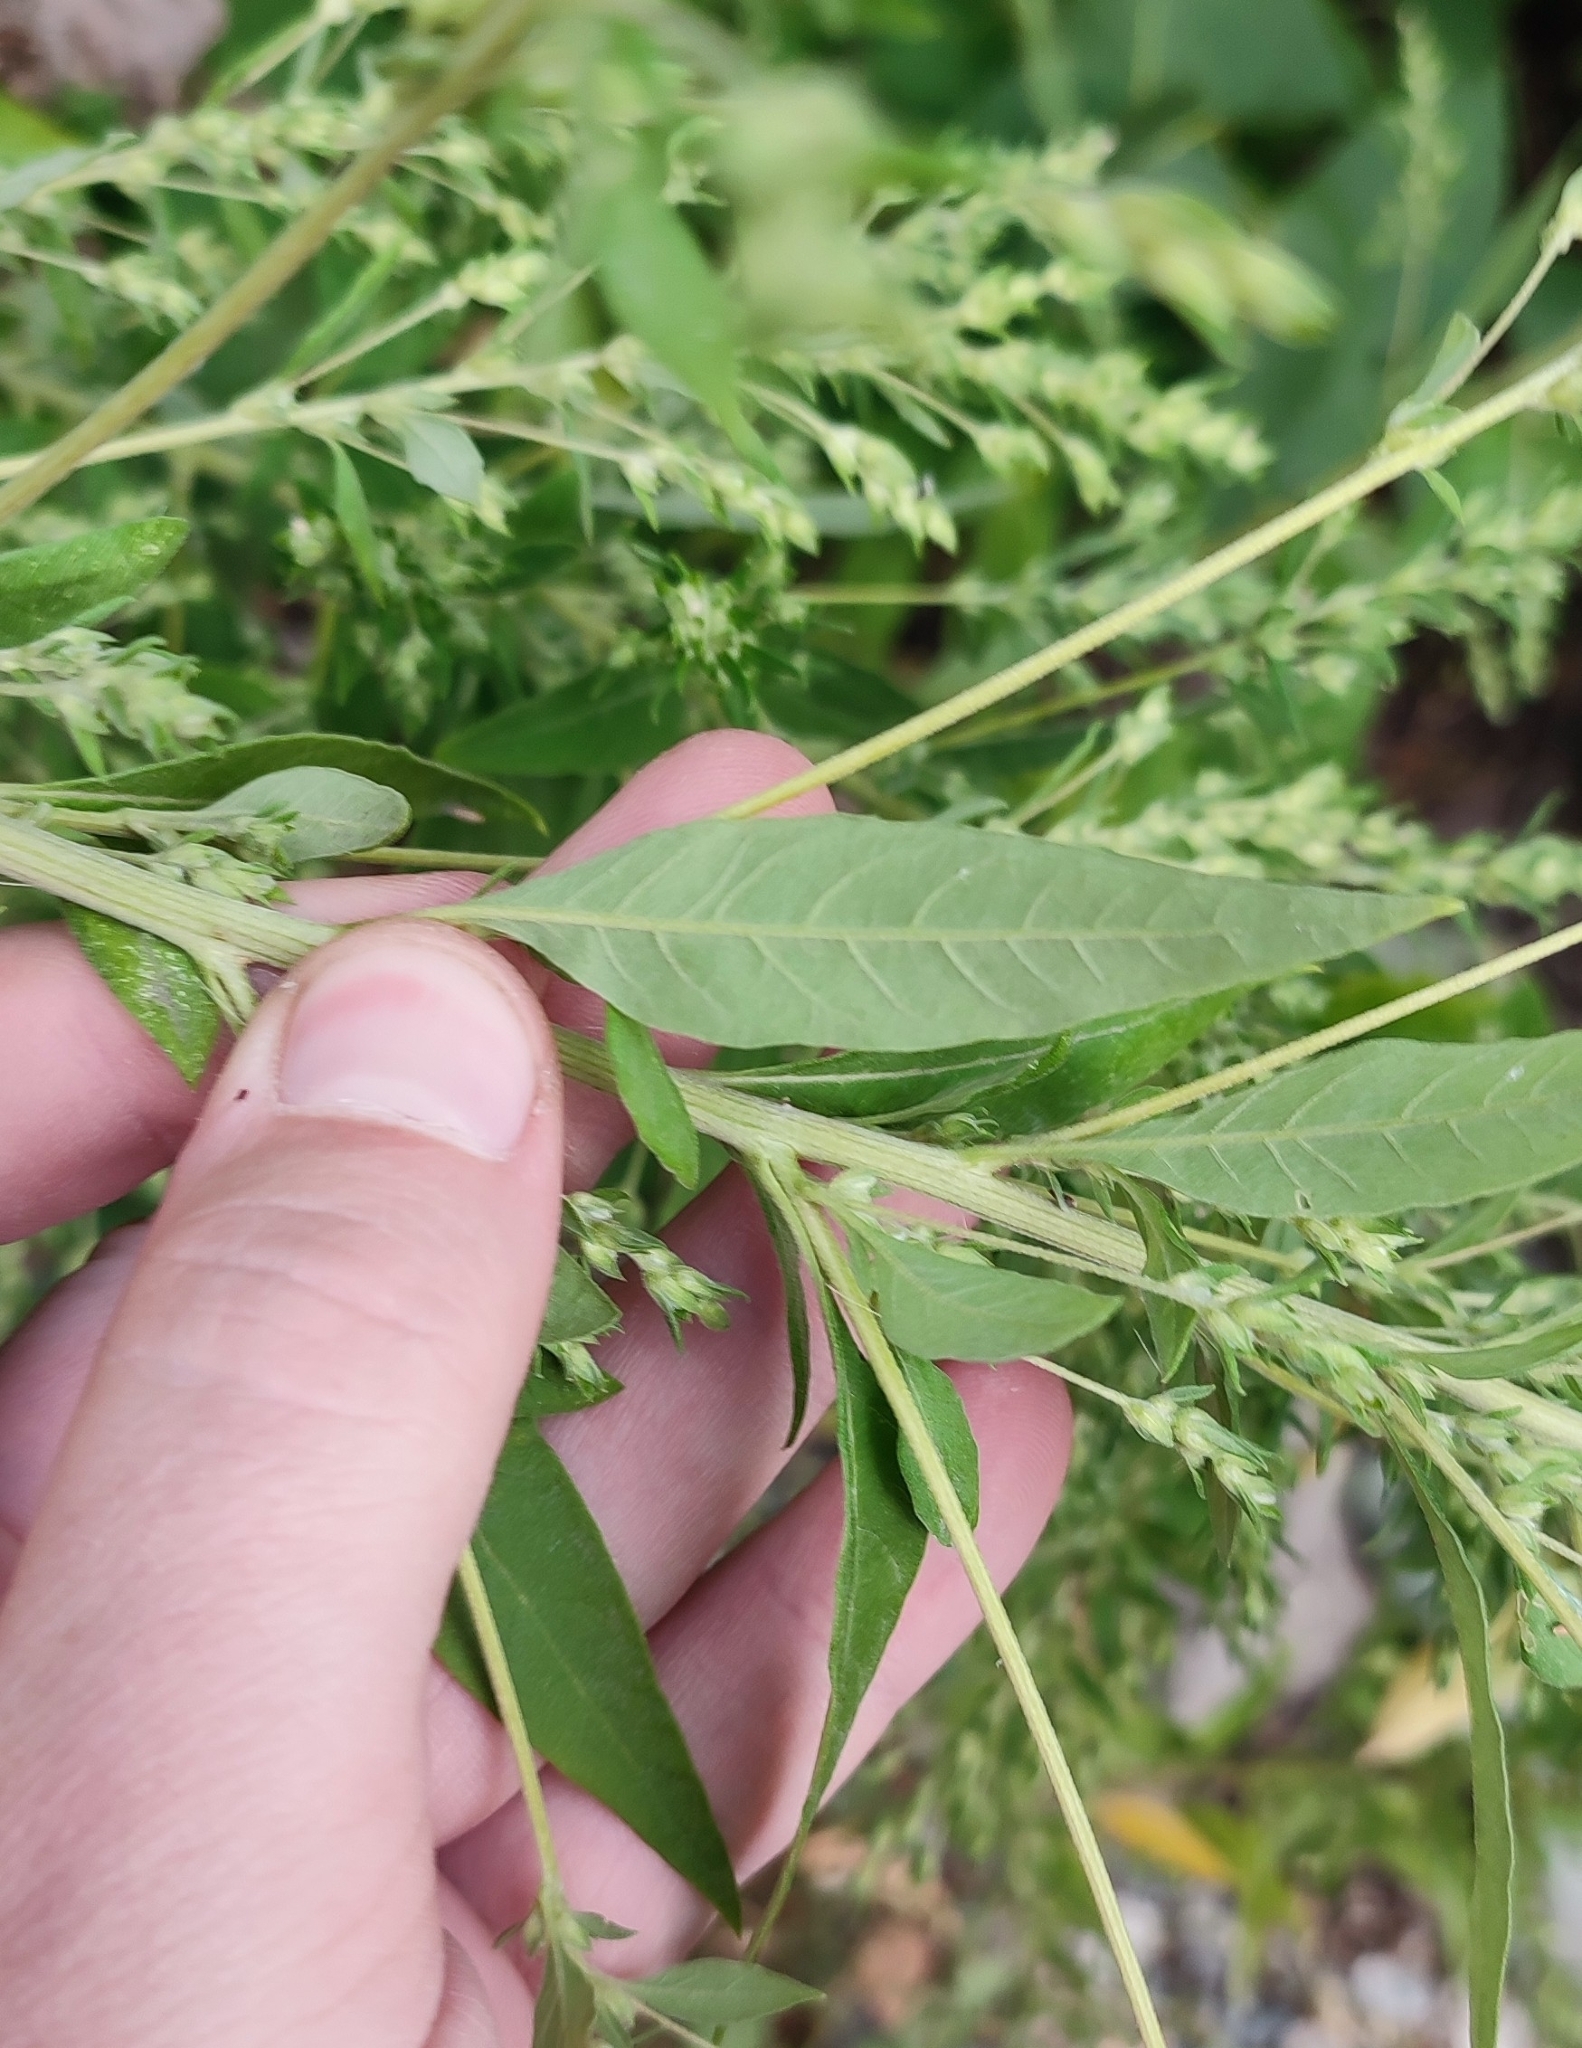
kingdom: Plantae
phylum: Tracheophyta
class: Magnoliopsida
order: Caryophyllales
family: Amaranthaceae
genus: Axyris
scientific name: Axyris amaranthoides
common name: Russian pigweed
